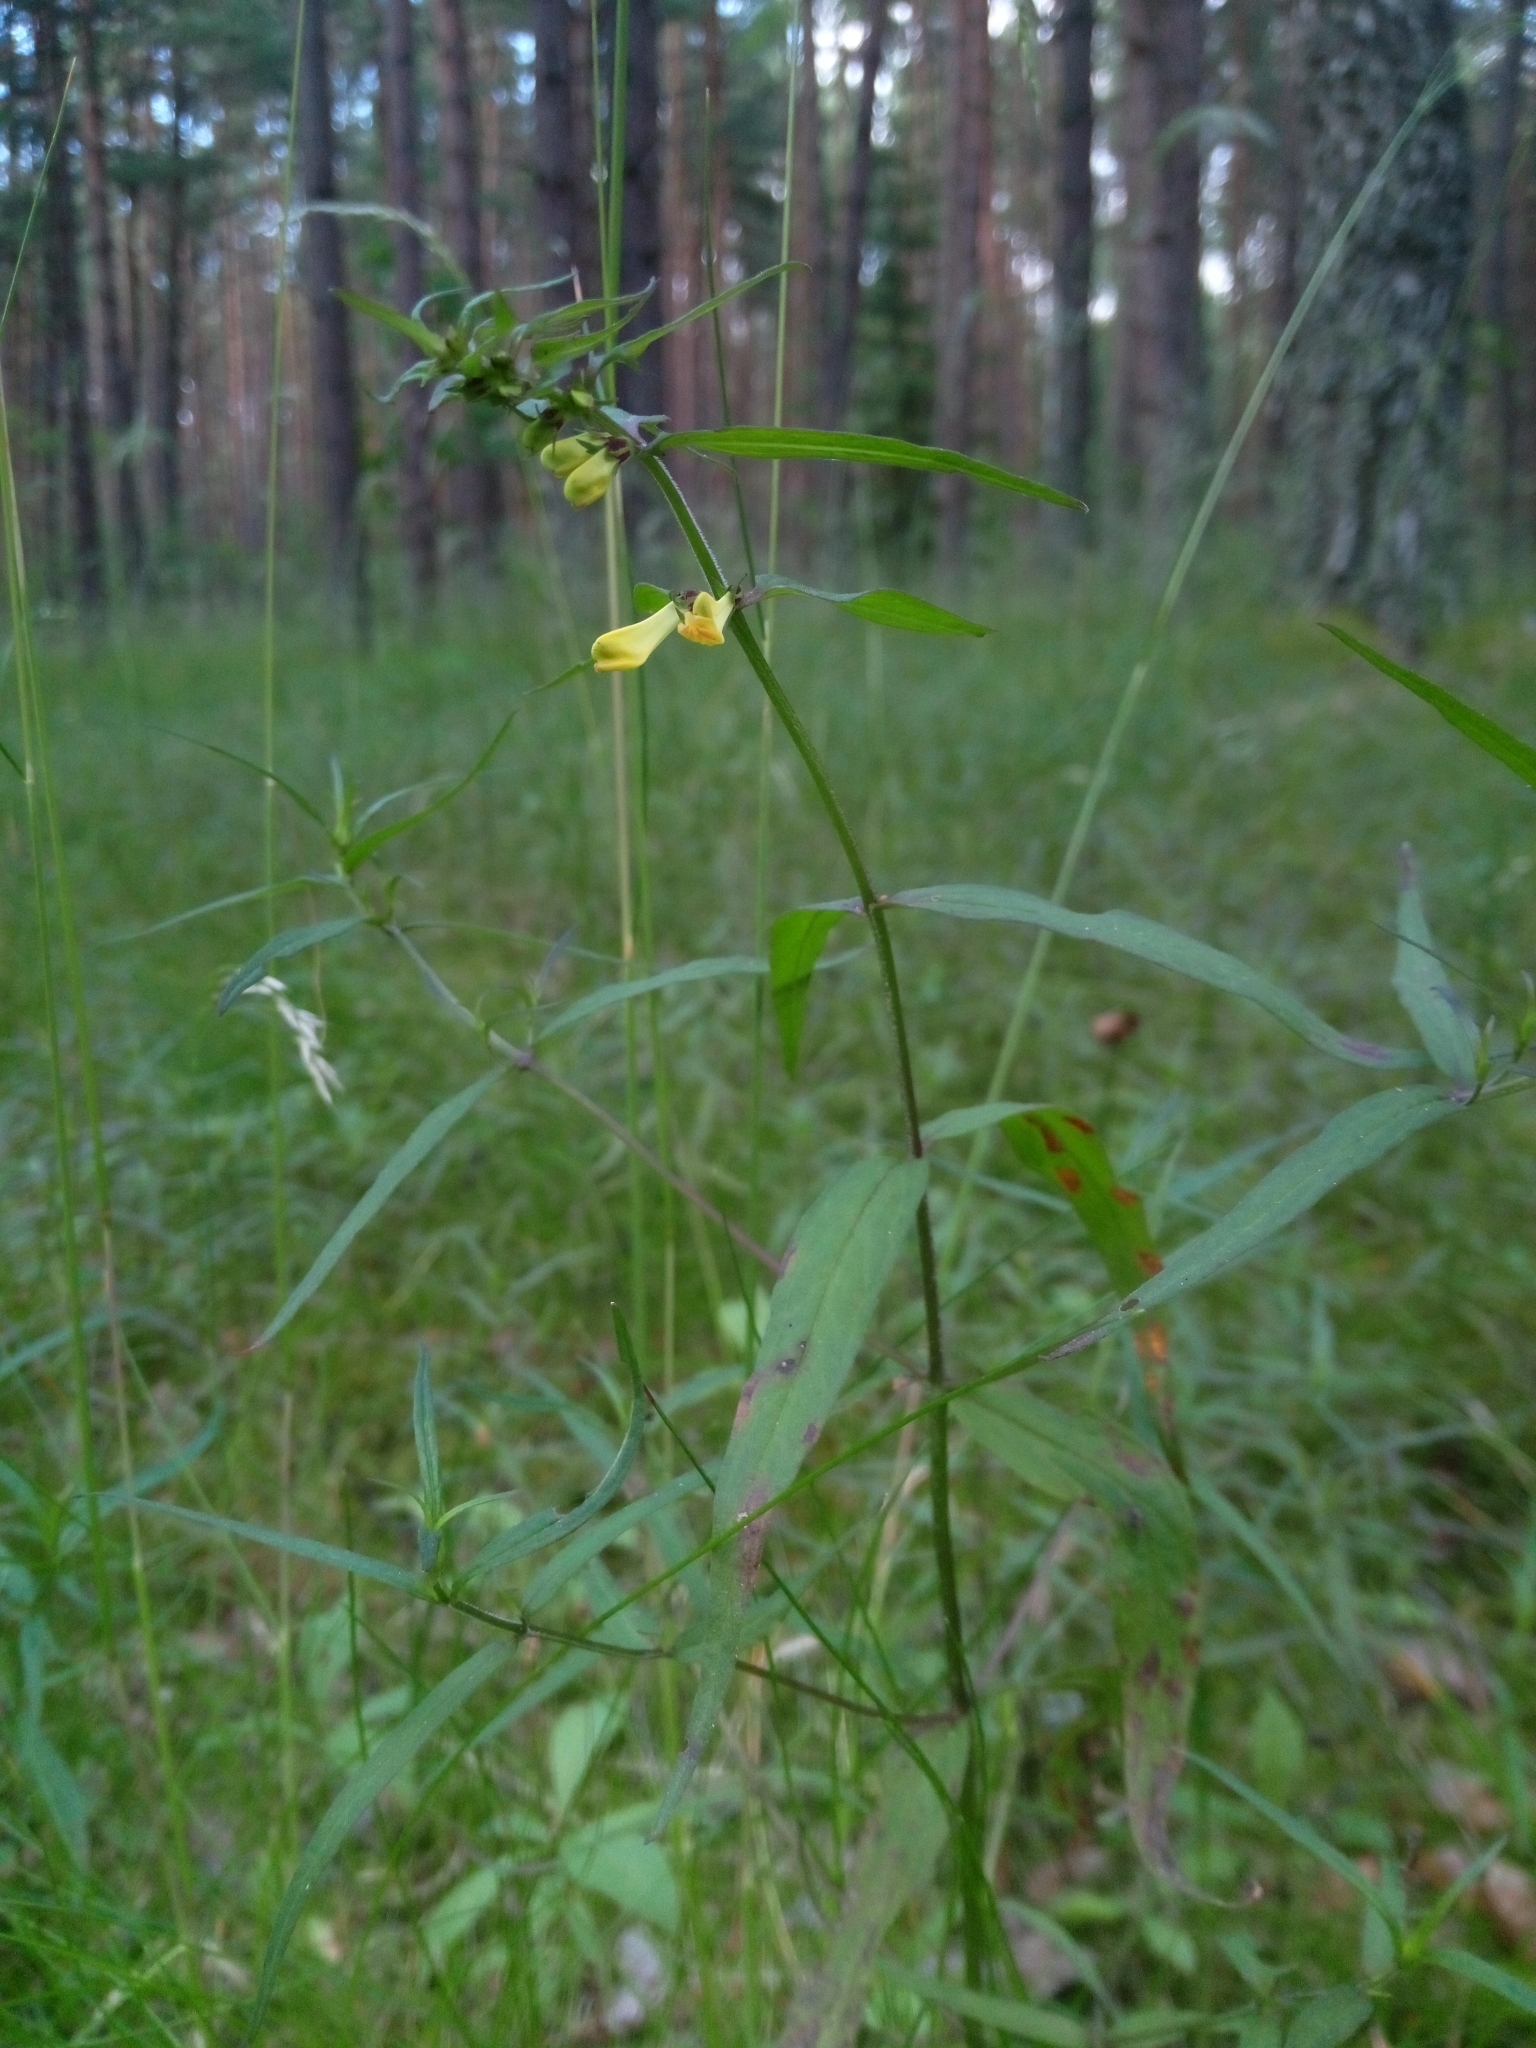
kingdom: Plantae
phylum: Tracheophyta
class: Magnoliopsida
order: Lamiales
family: Orobanchaceae
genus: Melampyrum
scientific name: Melampyrum pratense
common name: Common cow-wheat
